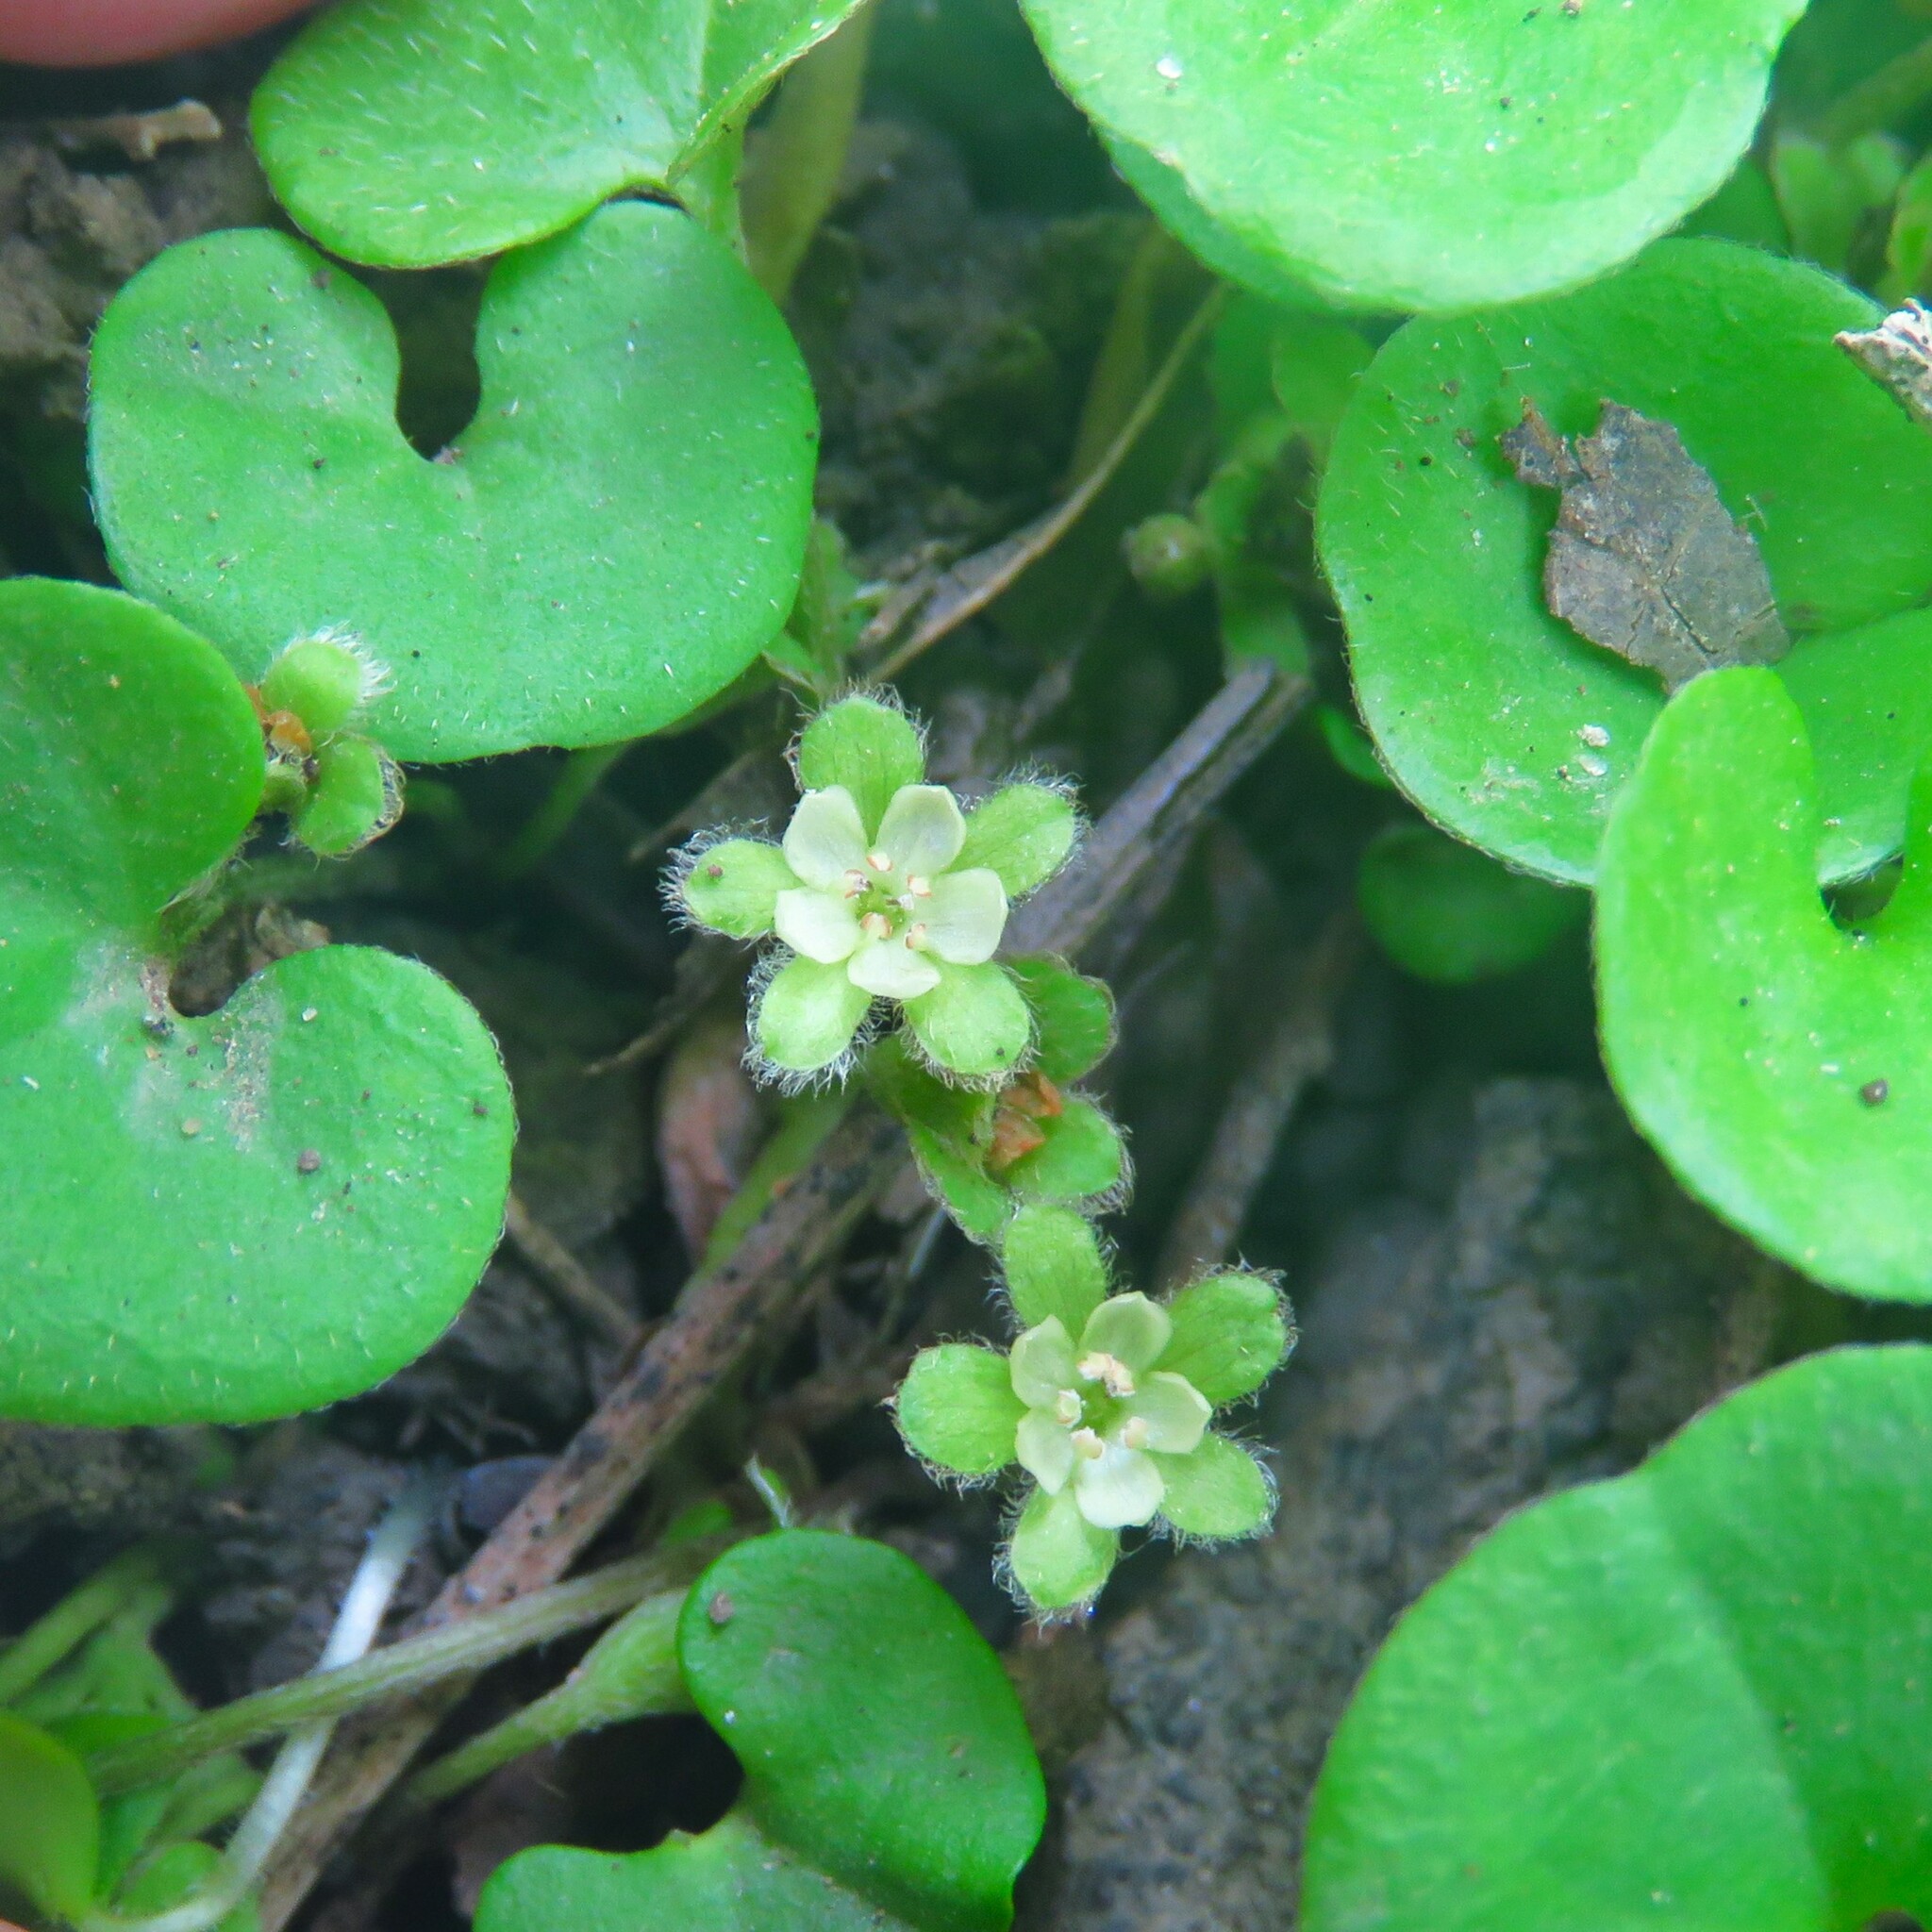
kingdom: Plantae
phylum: Tracheophyta
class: Magnoliopsida
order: Solanales
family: Convolvulaceae
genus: Dichondra
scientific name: Dichondra carolinensis
